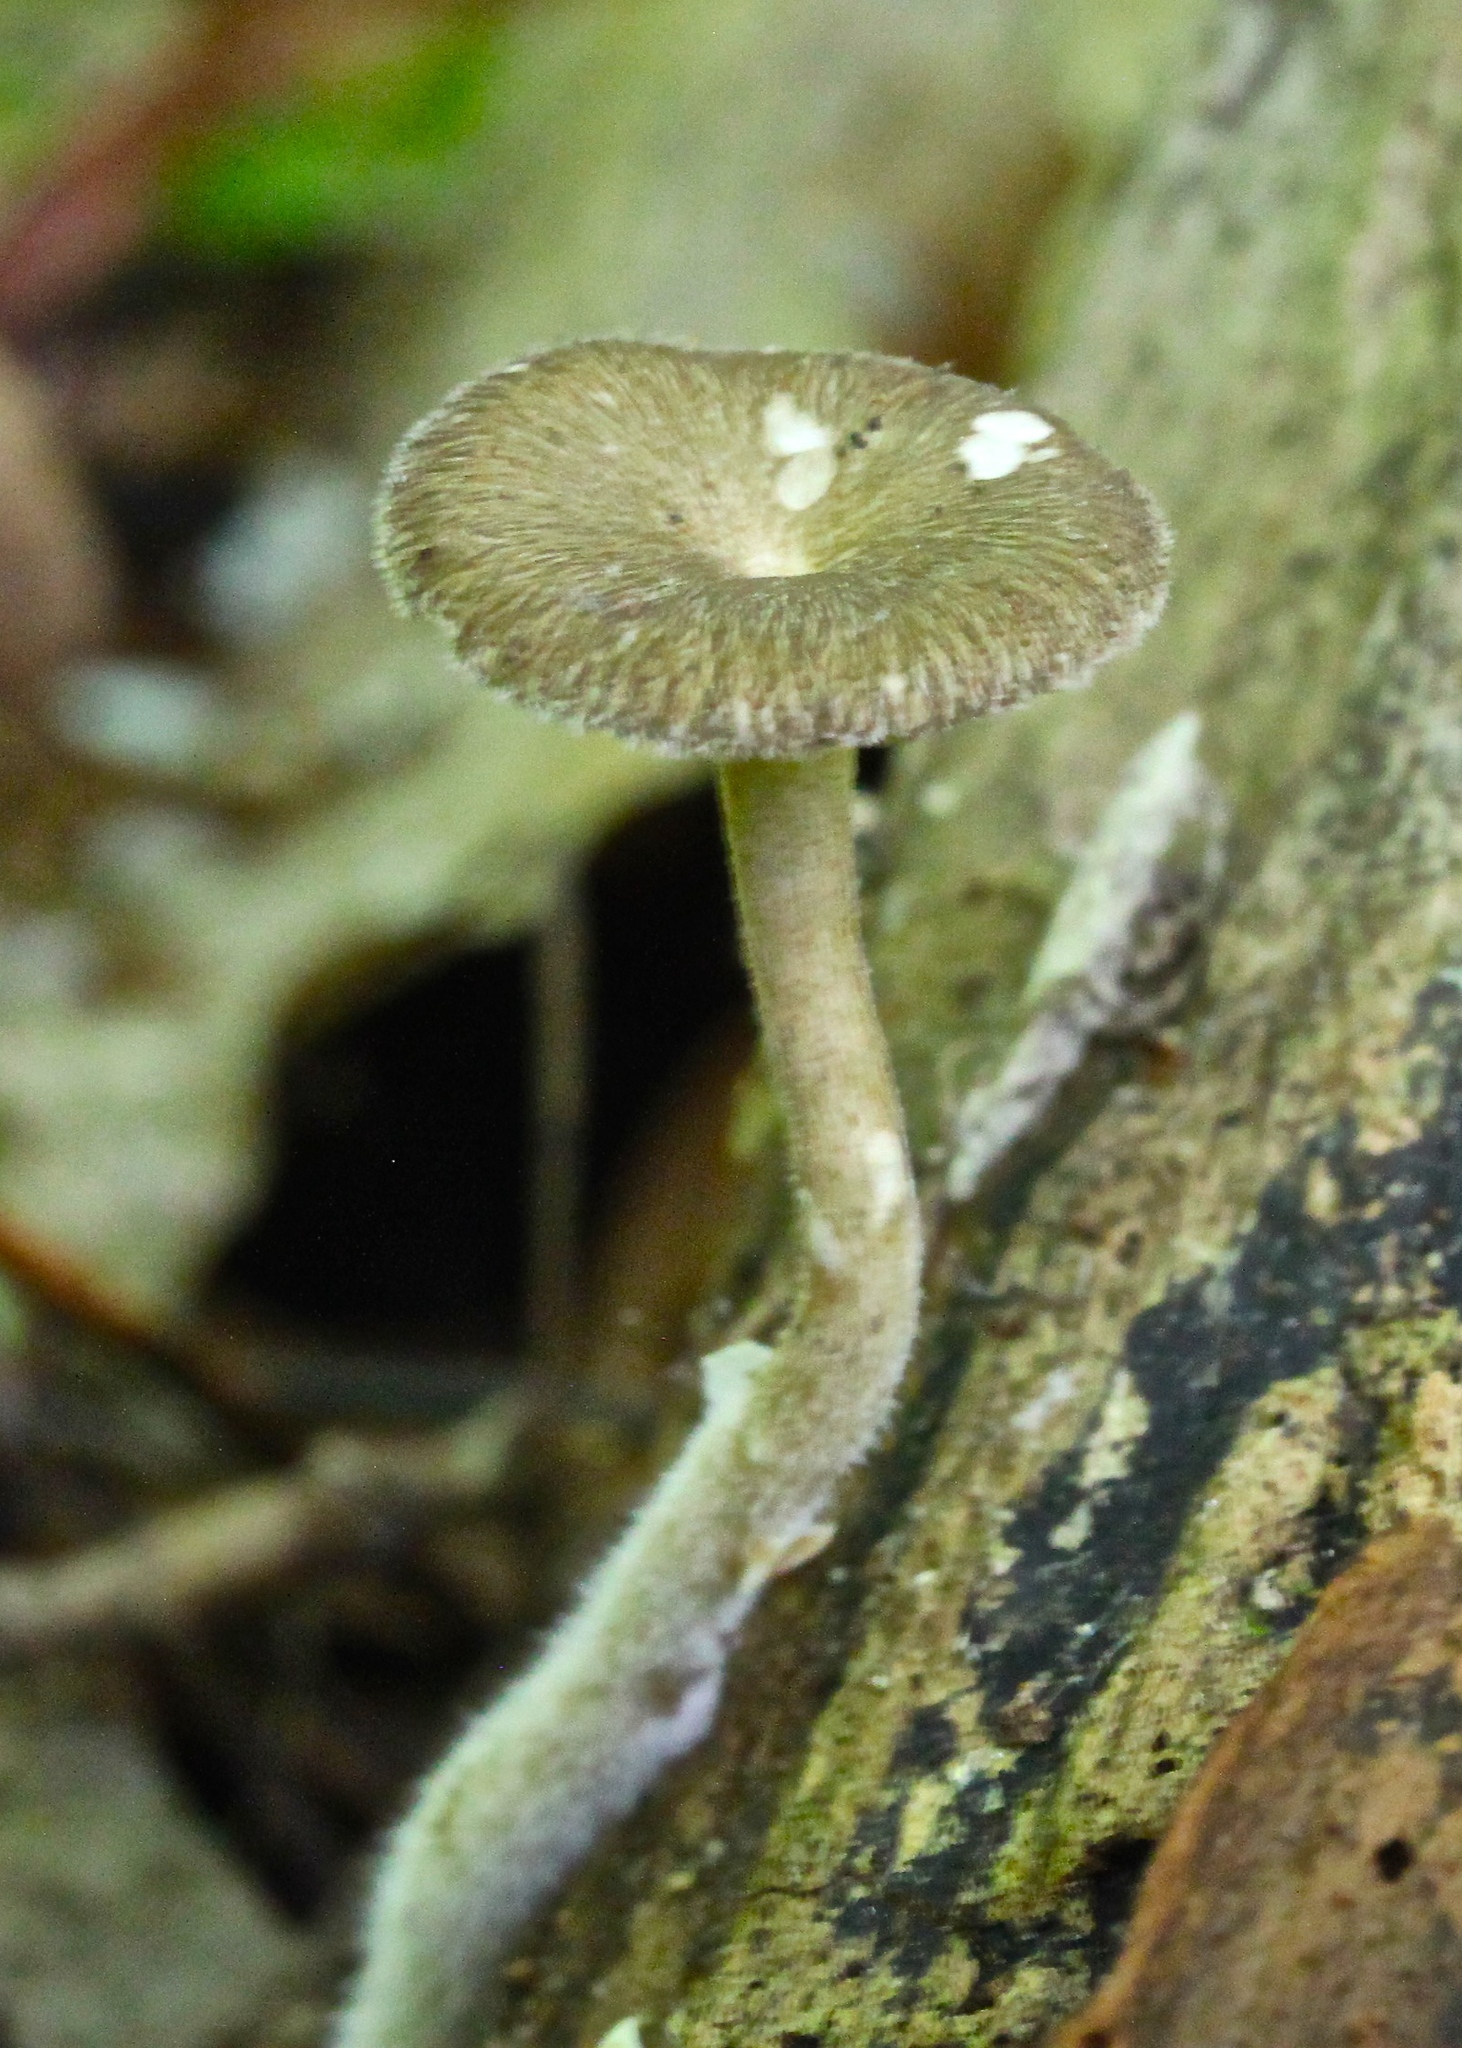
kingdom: Fungi
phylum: Basidiomycota
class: Agaricomycetes
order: Polyporales
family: Polyporaceae
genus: Lentinus
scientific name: Lentinus longiporus
